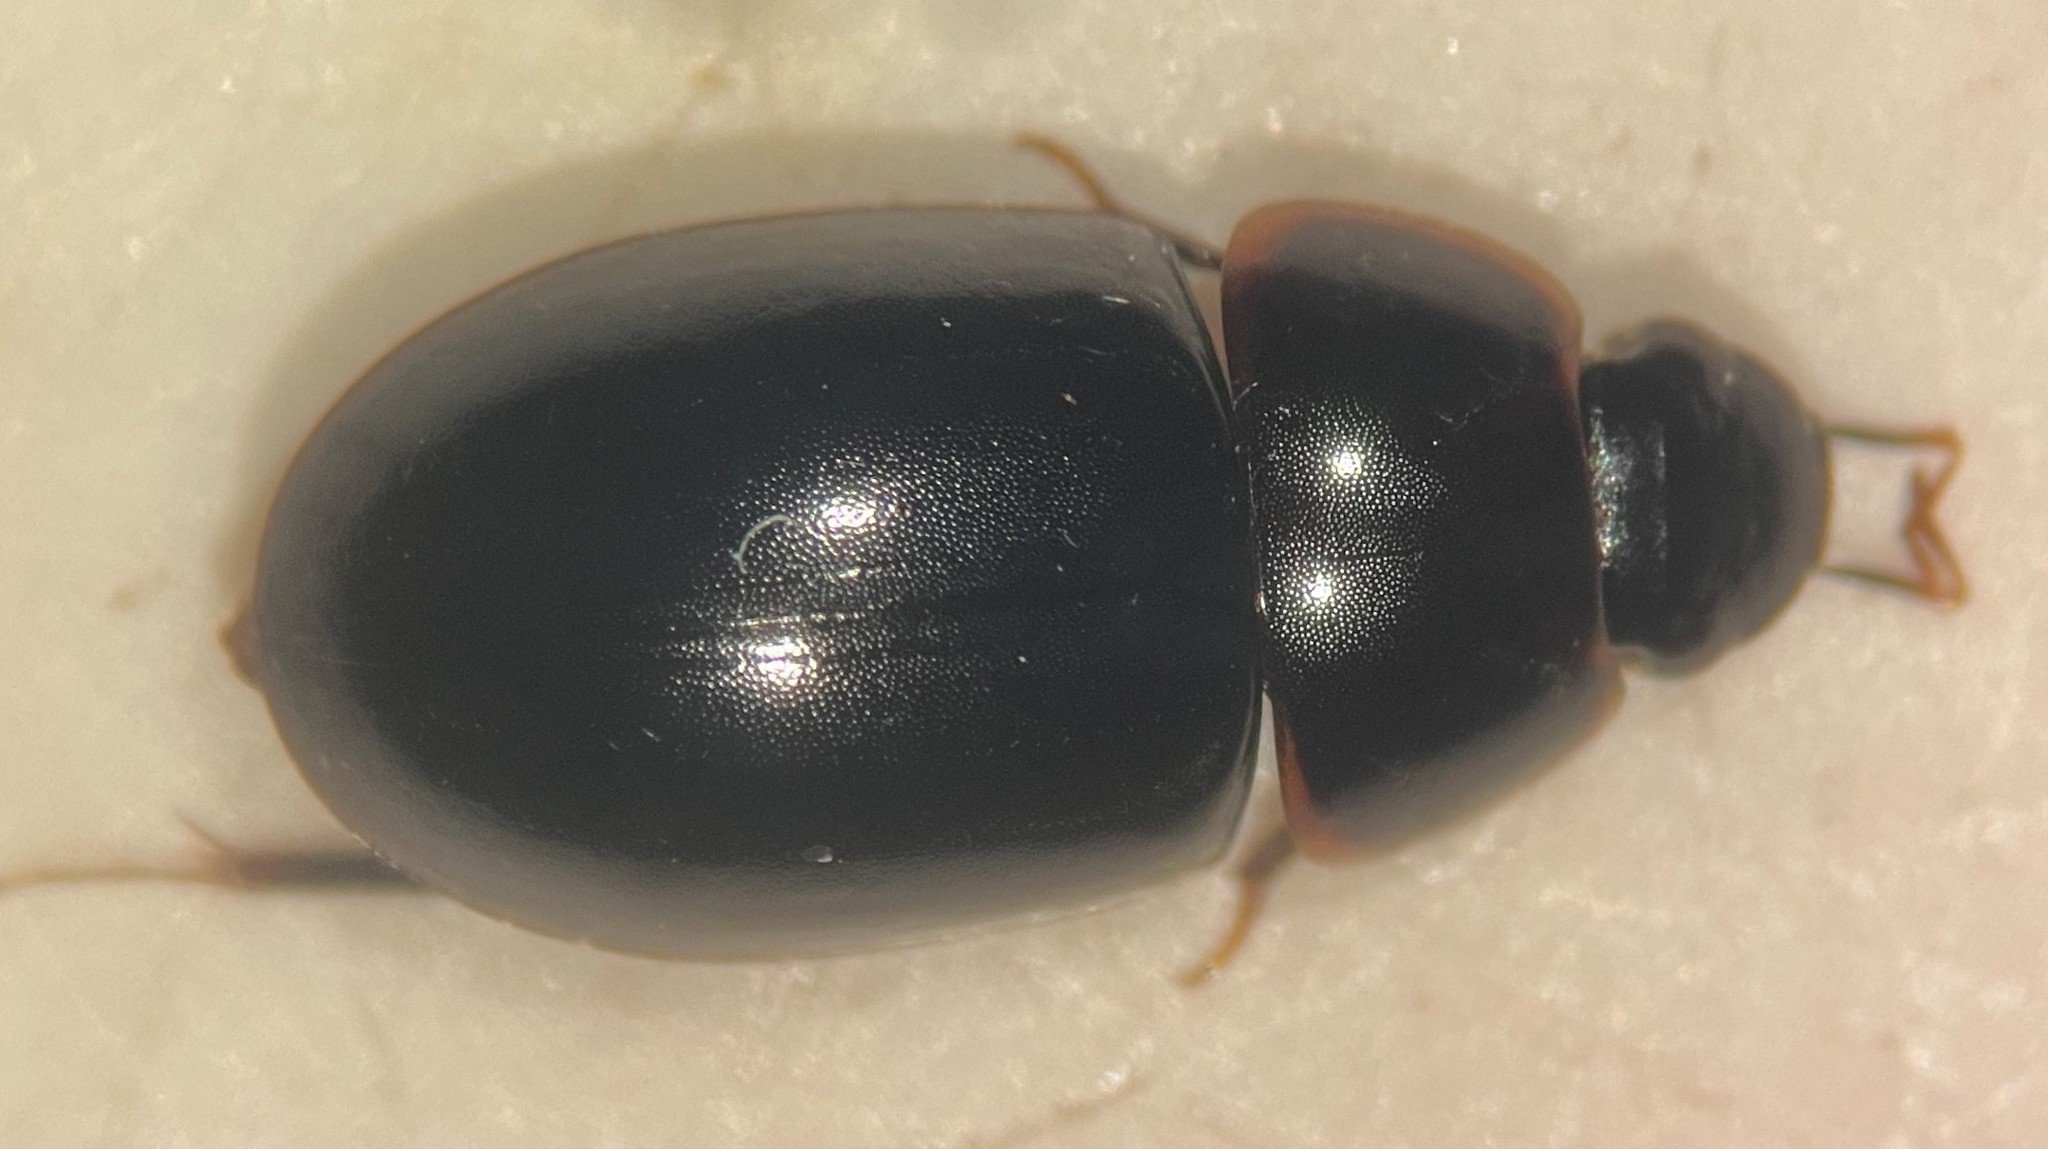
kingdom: Animalia
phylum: Arthropoda
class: Insecta
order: Coleoptera
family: Hydrophilidae
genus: Enochrus
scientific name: Enochrus consortus
